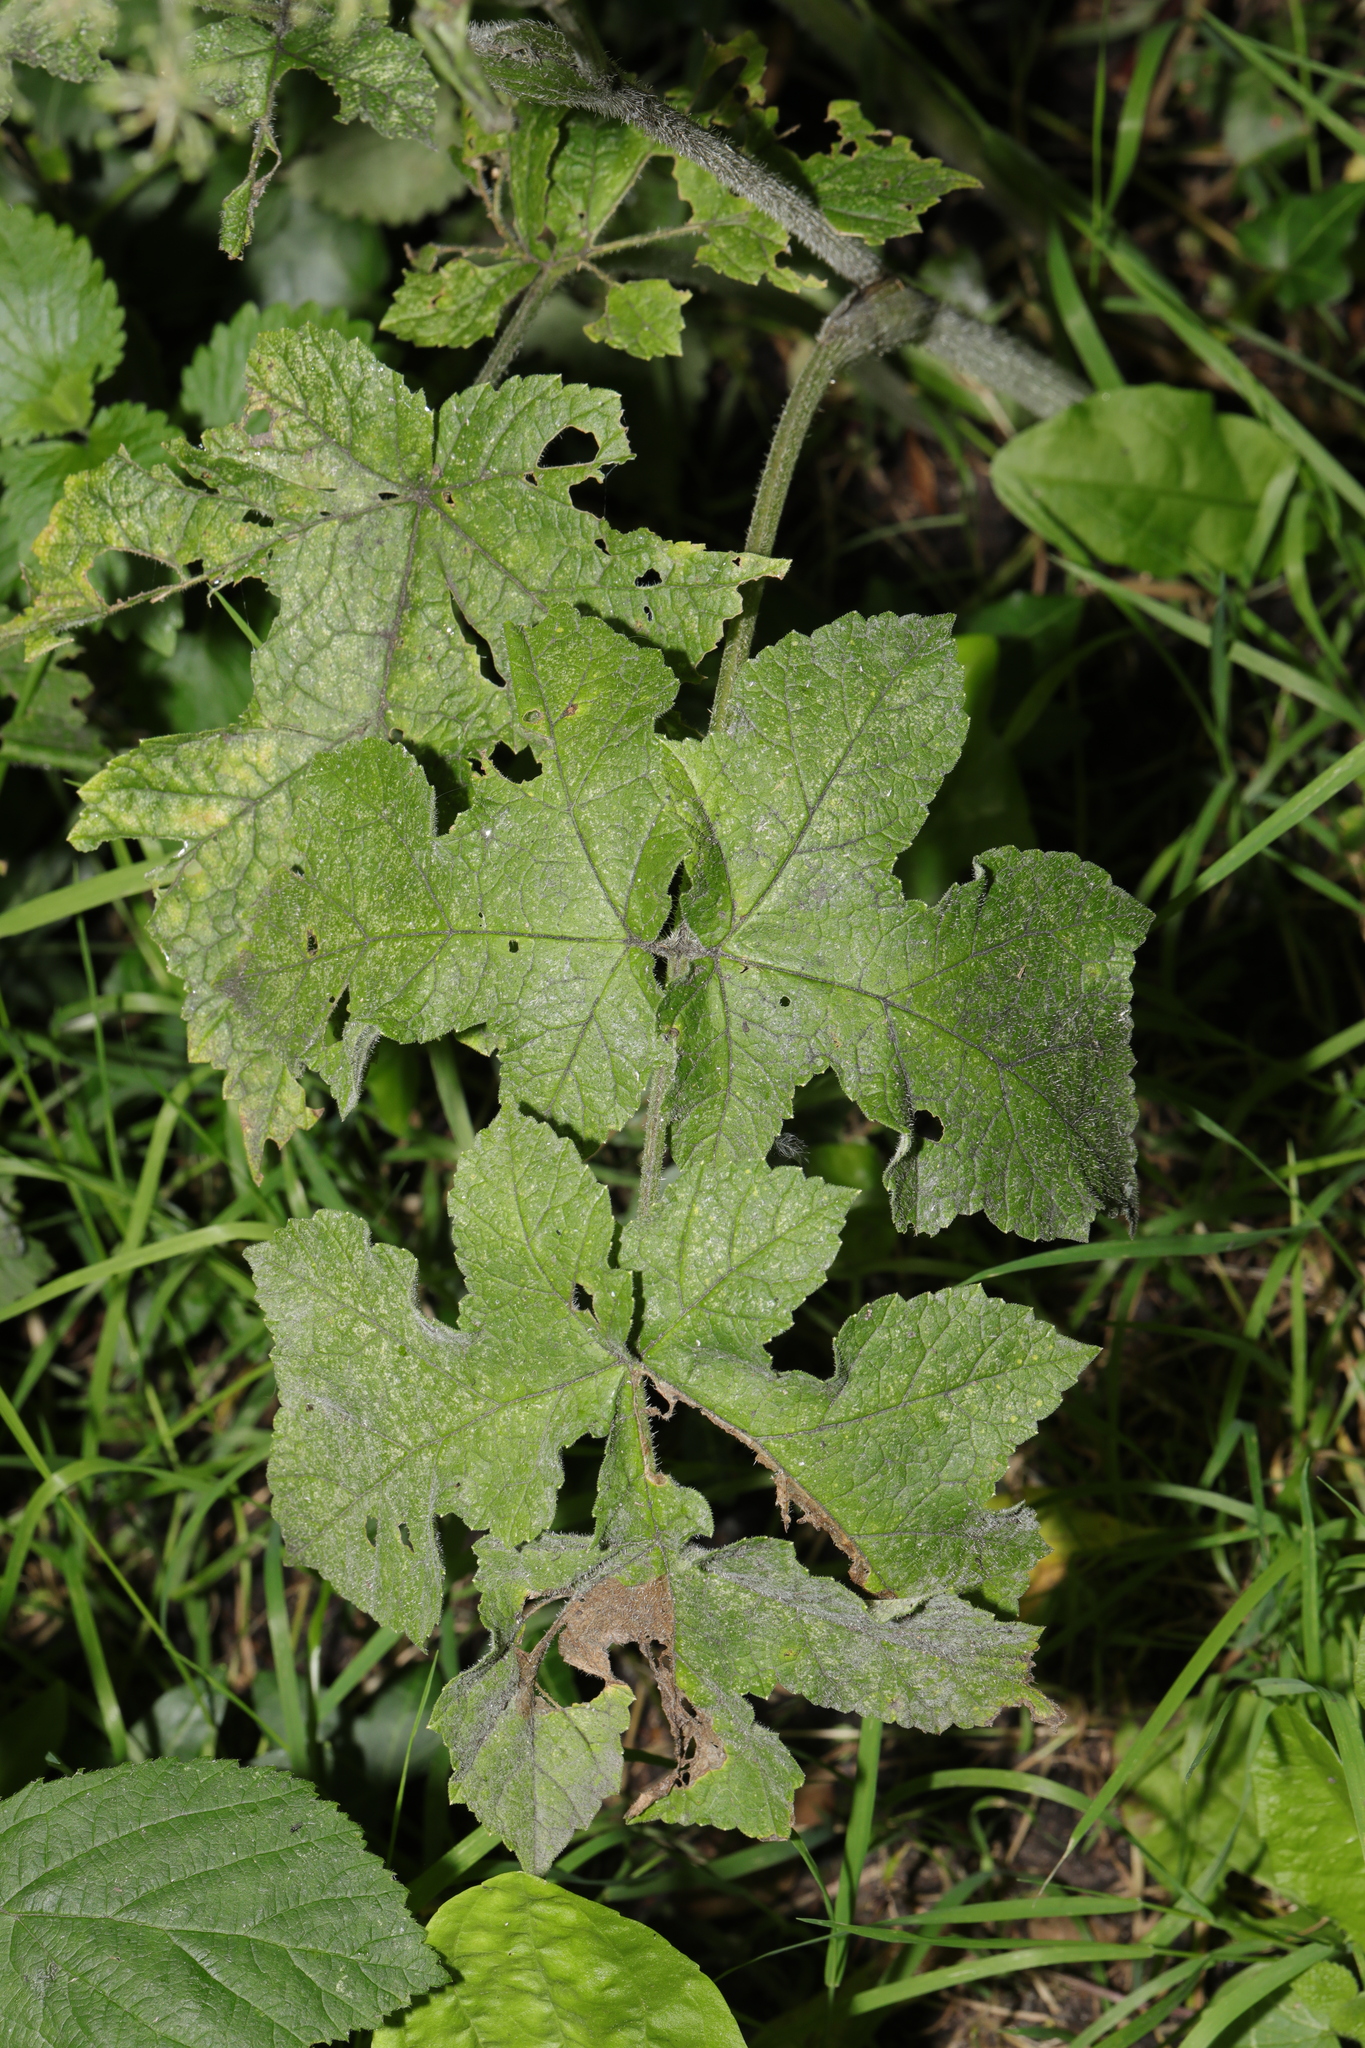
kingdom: Plantae
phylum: Tracheophyta
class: Magnoliopsida
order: Apiales
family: Apiaceae
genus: Heracleum
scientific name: Heracleum sphondylium
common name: Hogweed
